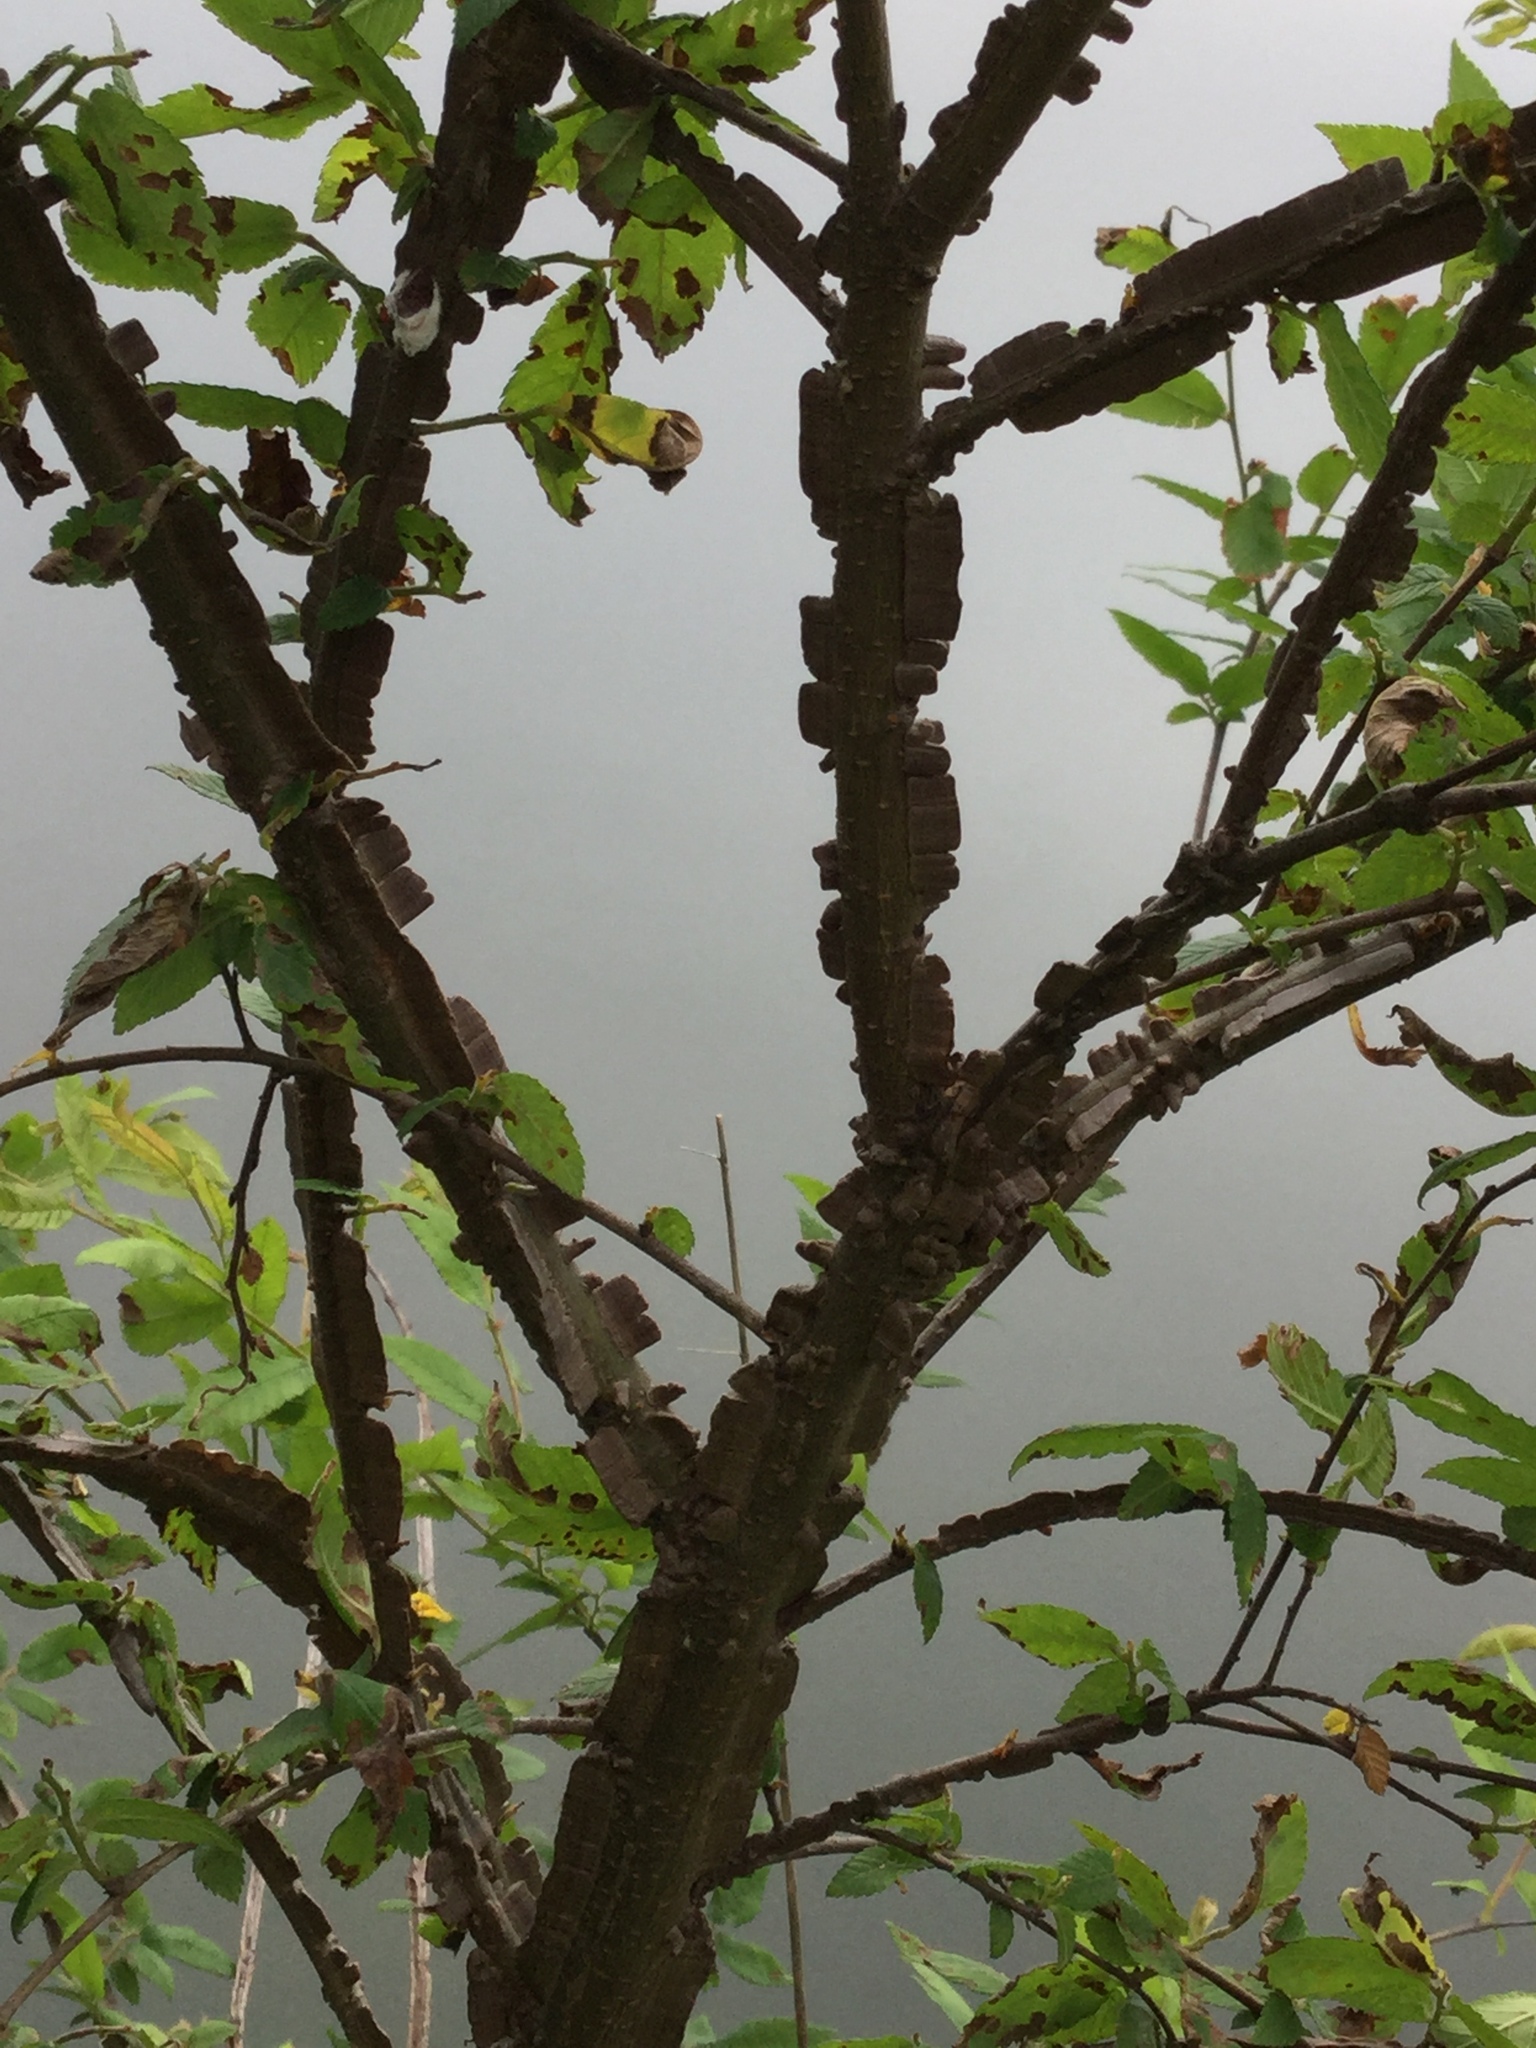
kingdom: Plantae
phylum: Tracheophyta
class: Magnoliopsida
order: Rosales
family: Ulmaceae
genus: Ulmus
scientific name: Ulmus alata
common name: Winged elm
